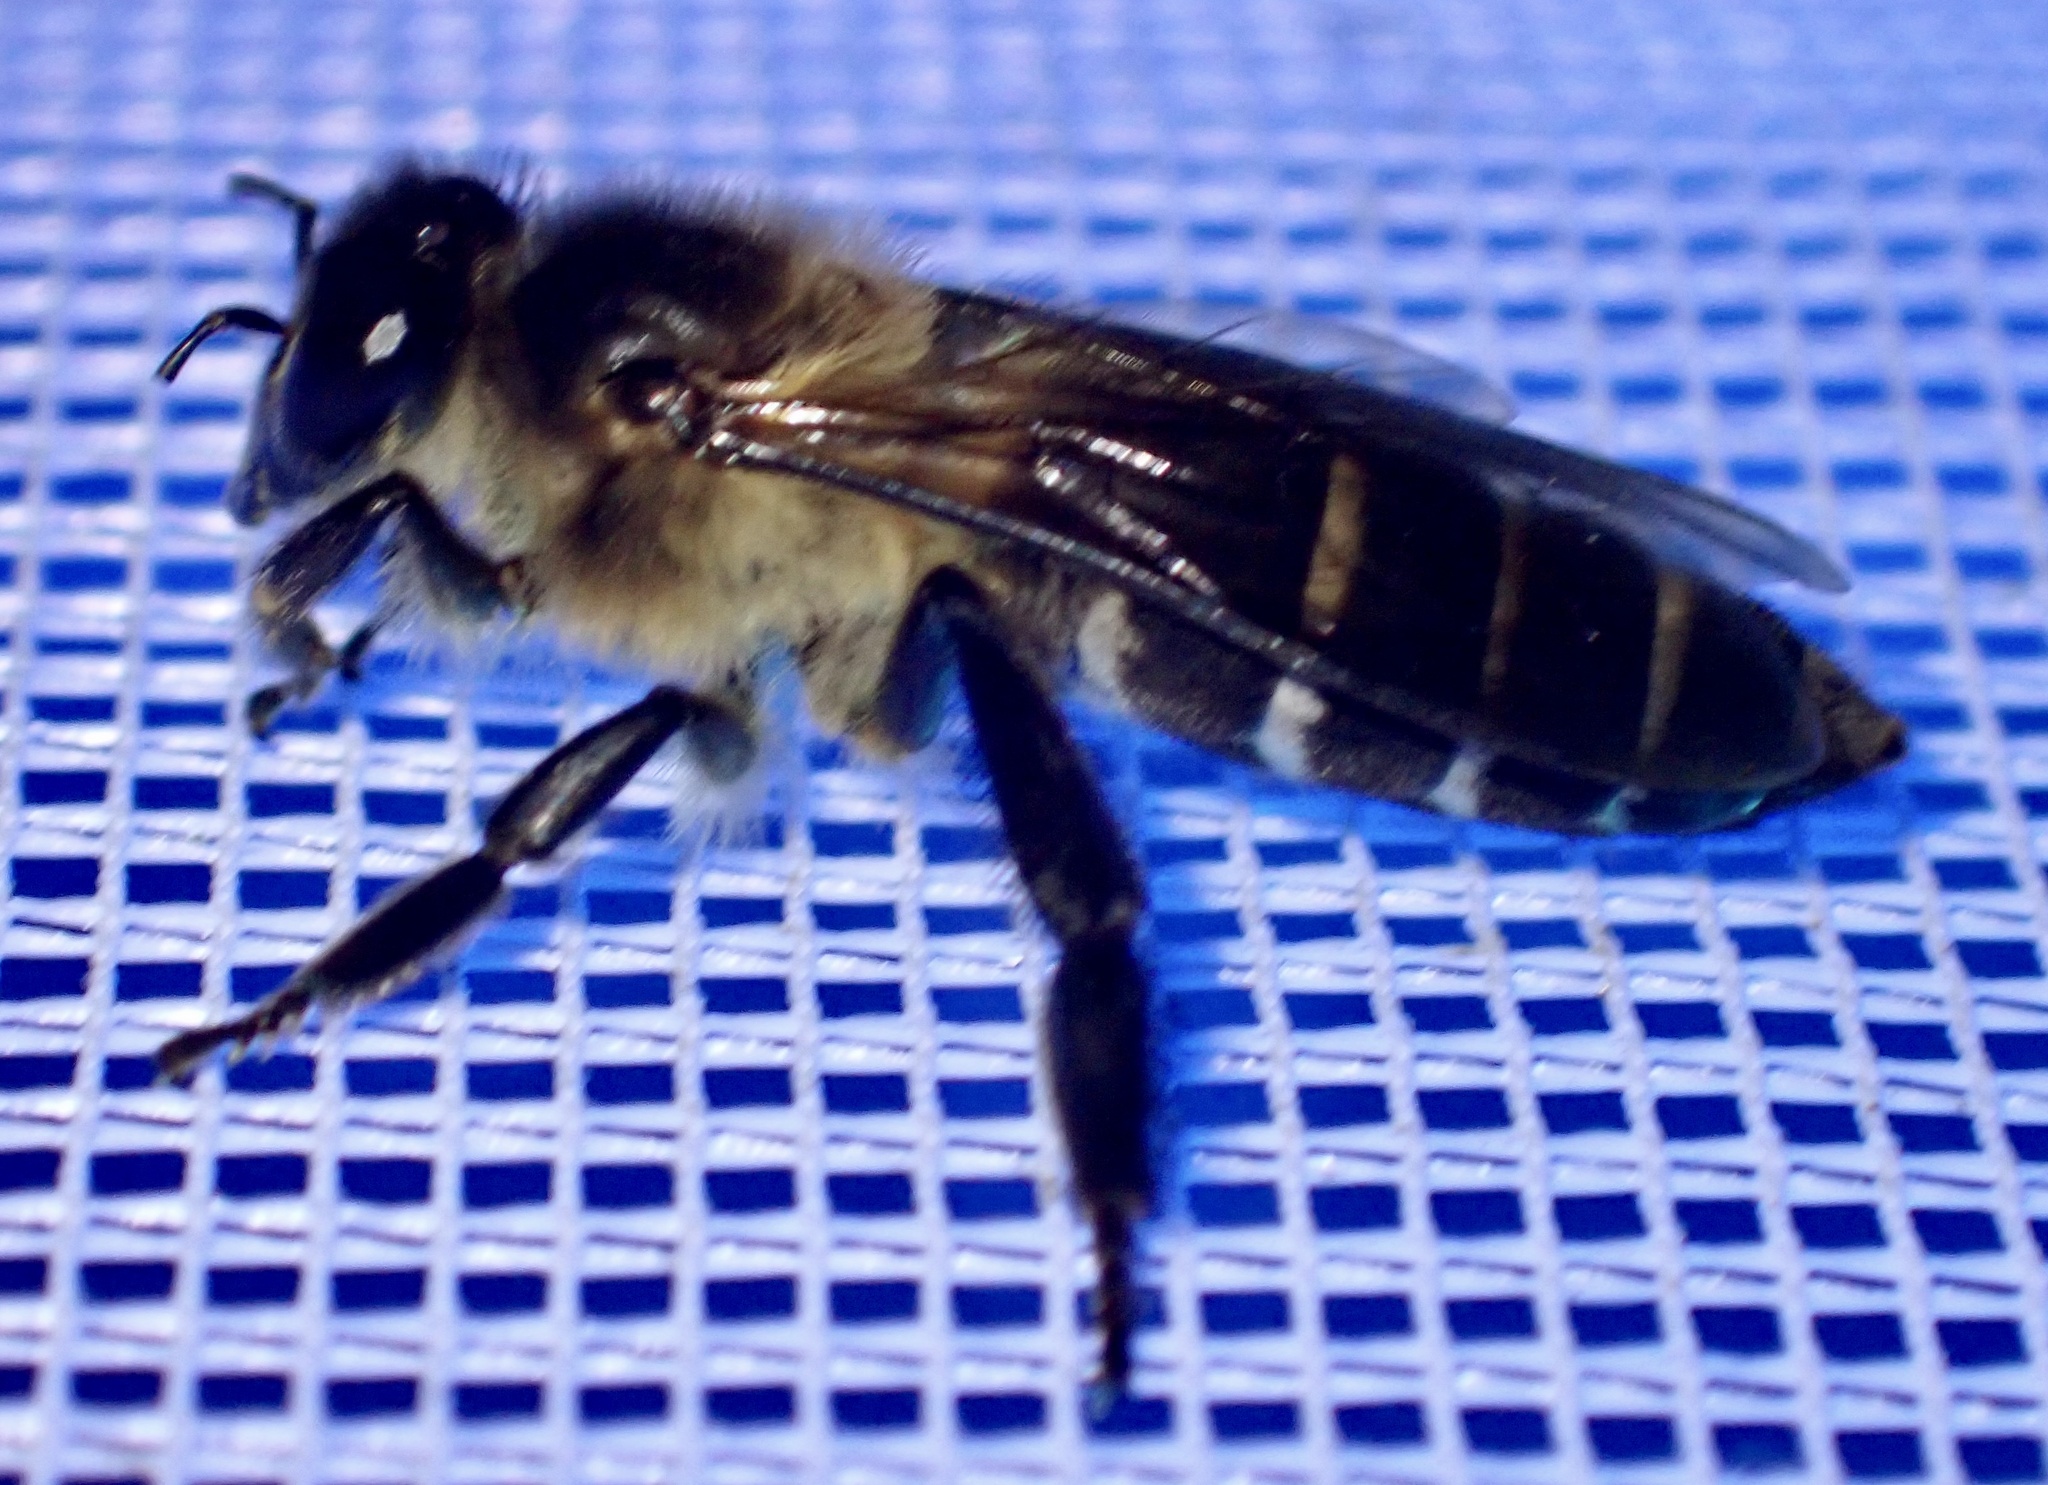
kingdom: Animalia
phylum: Arthropoda
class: Insecta
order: Hymenoptera
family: Apidae
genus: Apis
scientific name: Apis dorsata
